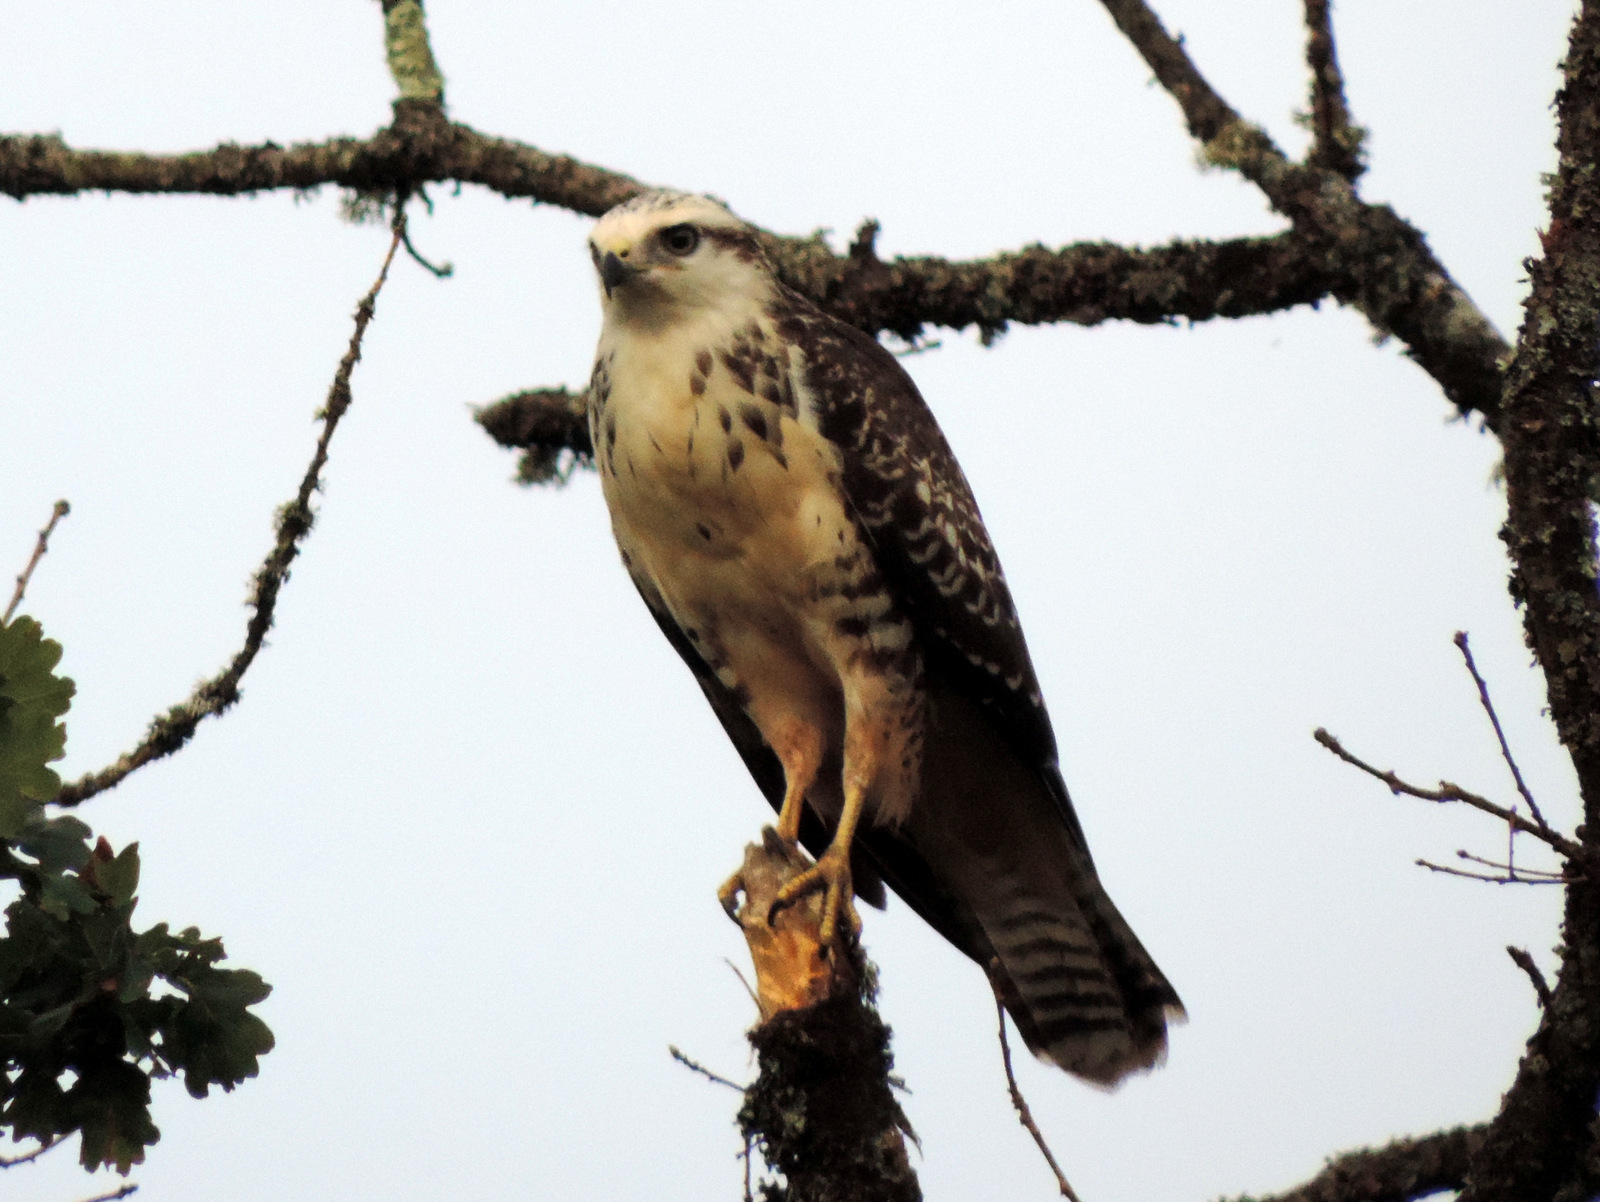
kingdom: Animalia
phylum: Chordata
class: Aves
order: Accipitriformes
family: Accipitridae
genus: Buteo
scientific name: Buteo buteo
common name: Common buzzard
